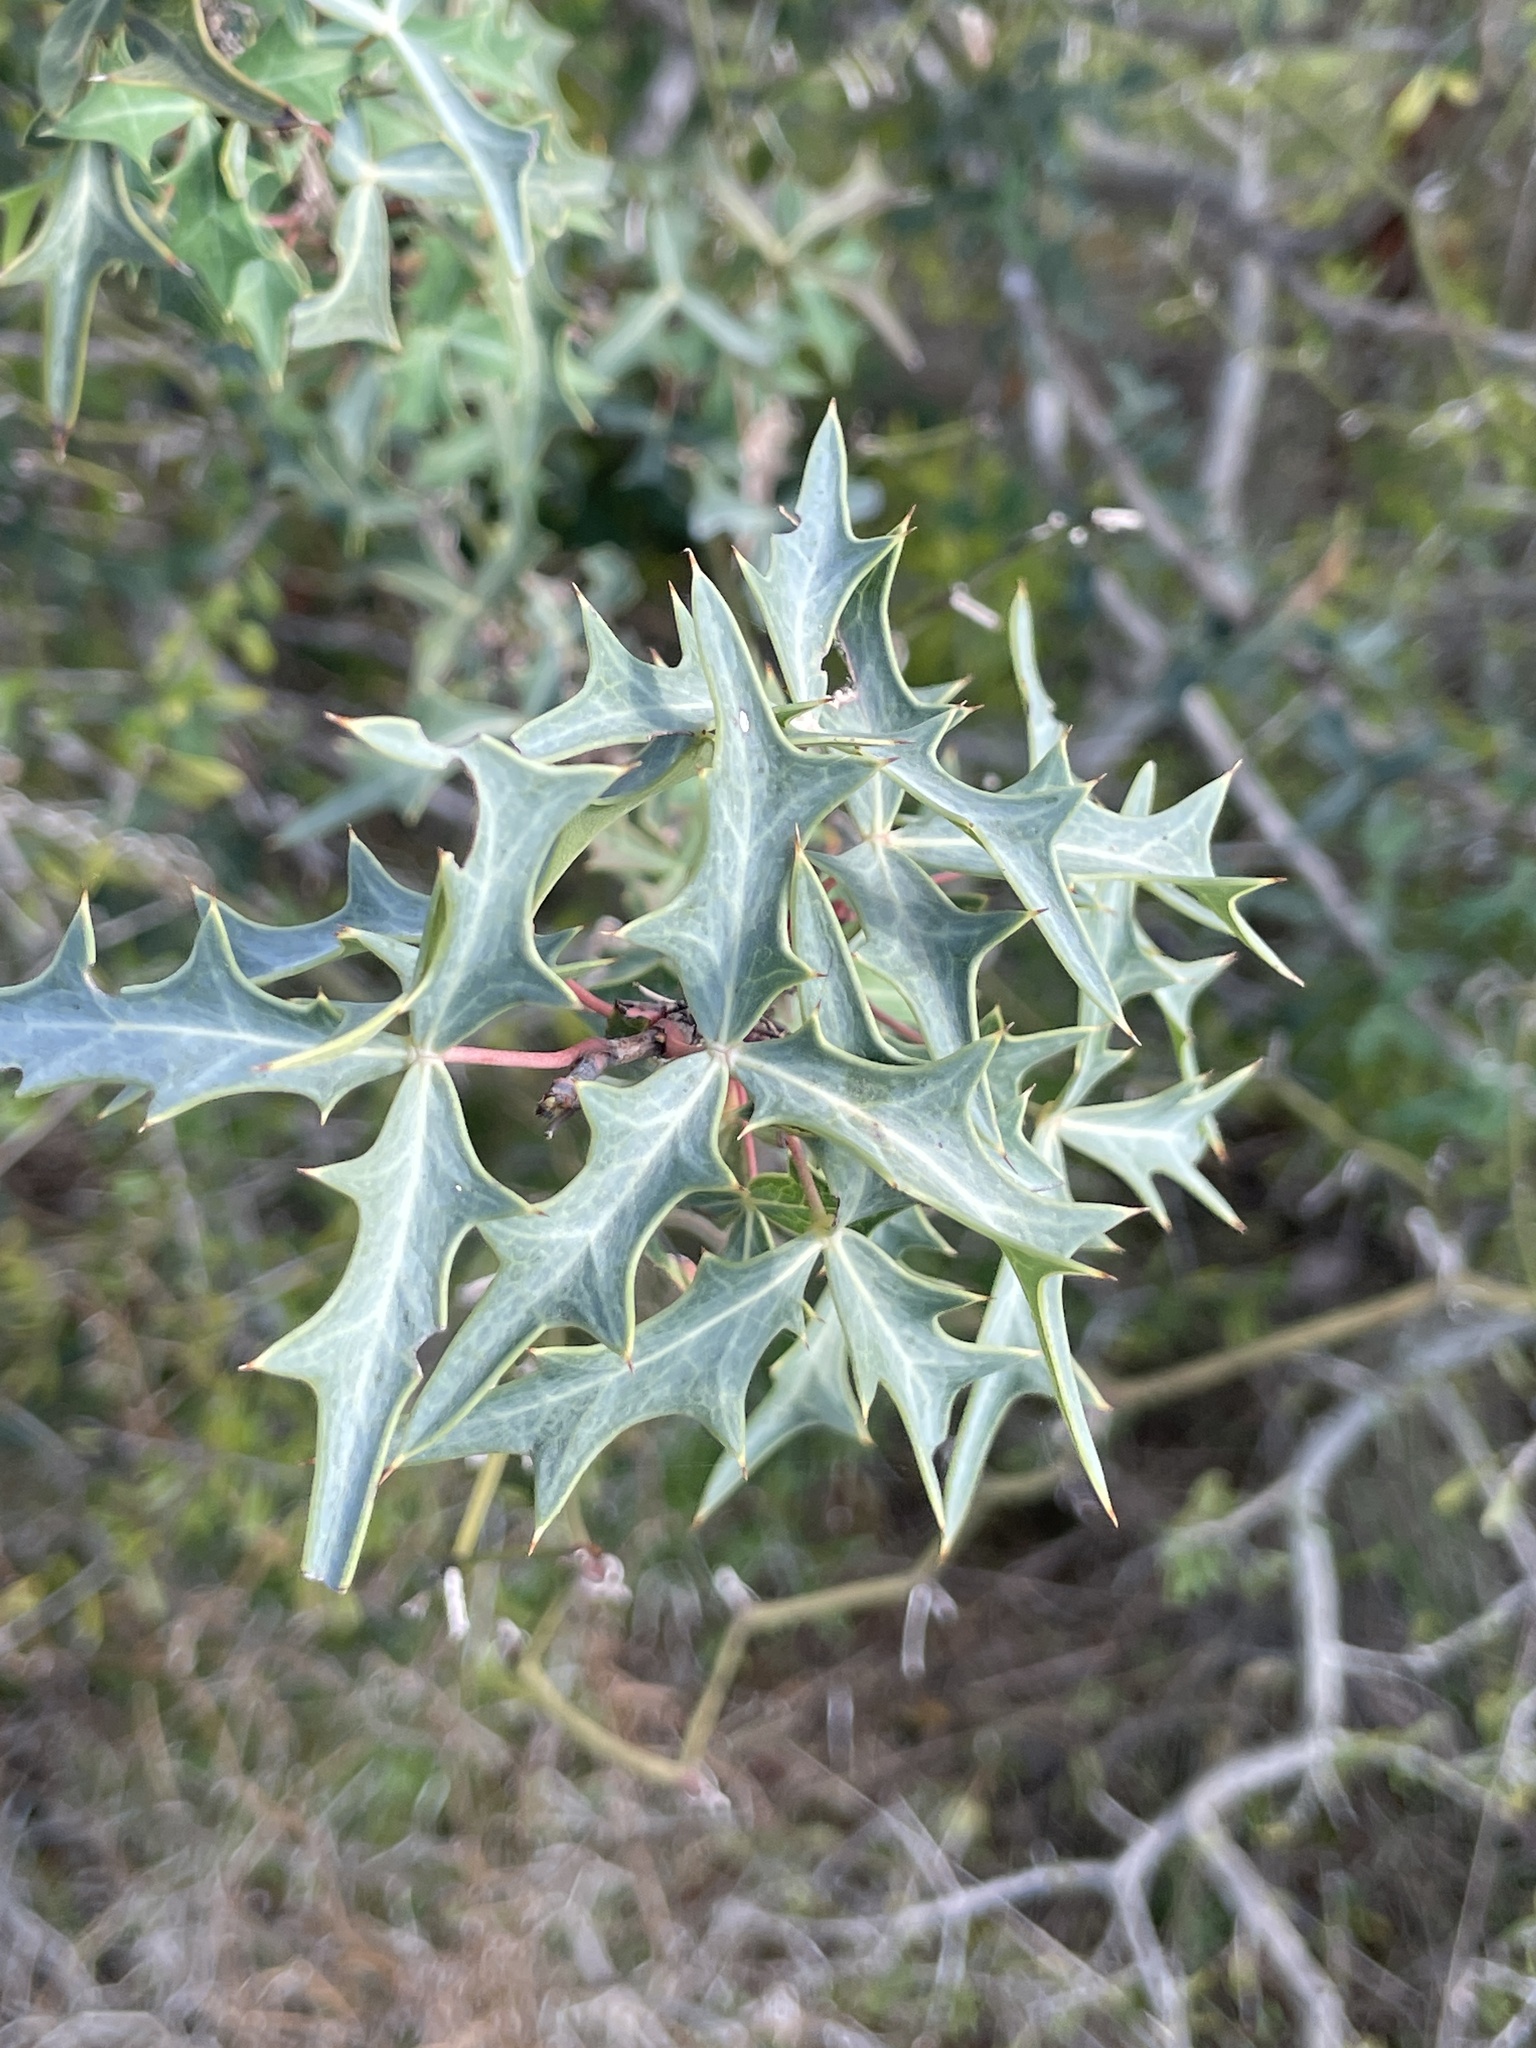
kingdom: Plantae
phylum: Tracheophyta
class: Magnoliopsida
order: Ranunculales
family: Berberidaceae
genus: Alloberberis
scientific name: Alloberberis trifoliolata
